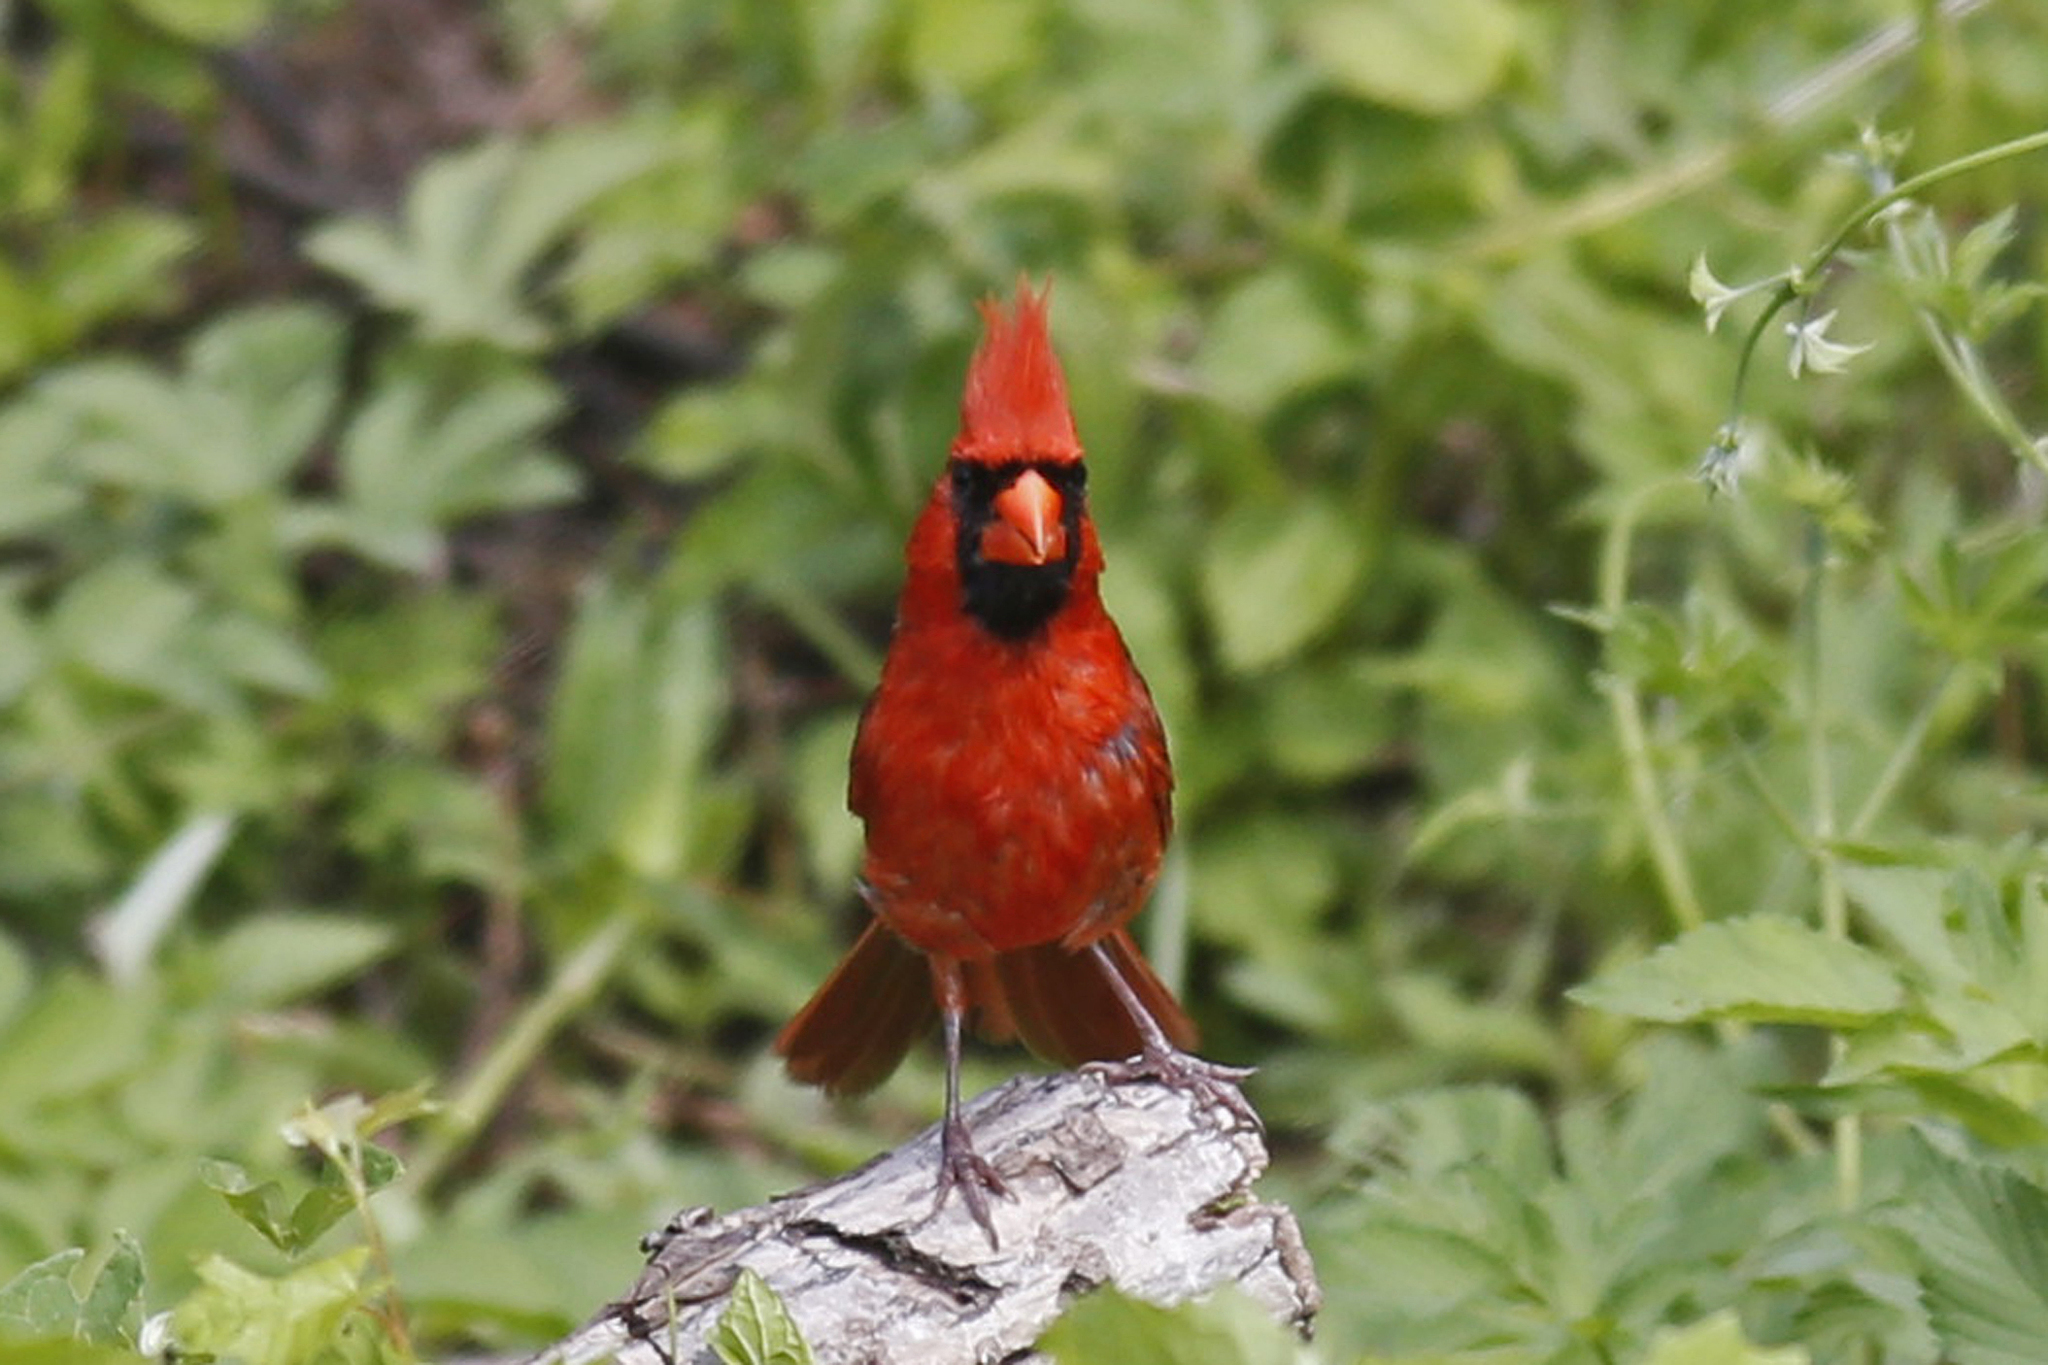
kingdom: Animalia
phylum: Chordata
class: Aves
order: Passeriformes
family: Cardinalidae
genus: Cardinalis
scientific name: Cardinalis cardinalis
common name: Northern cardinal
